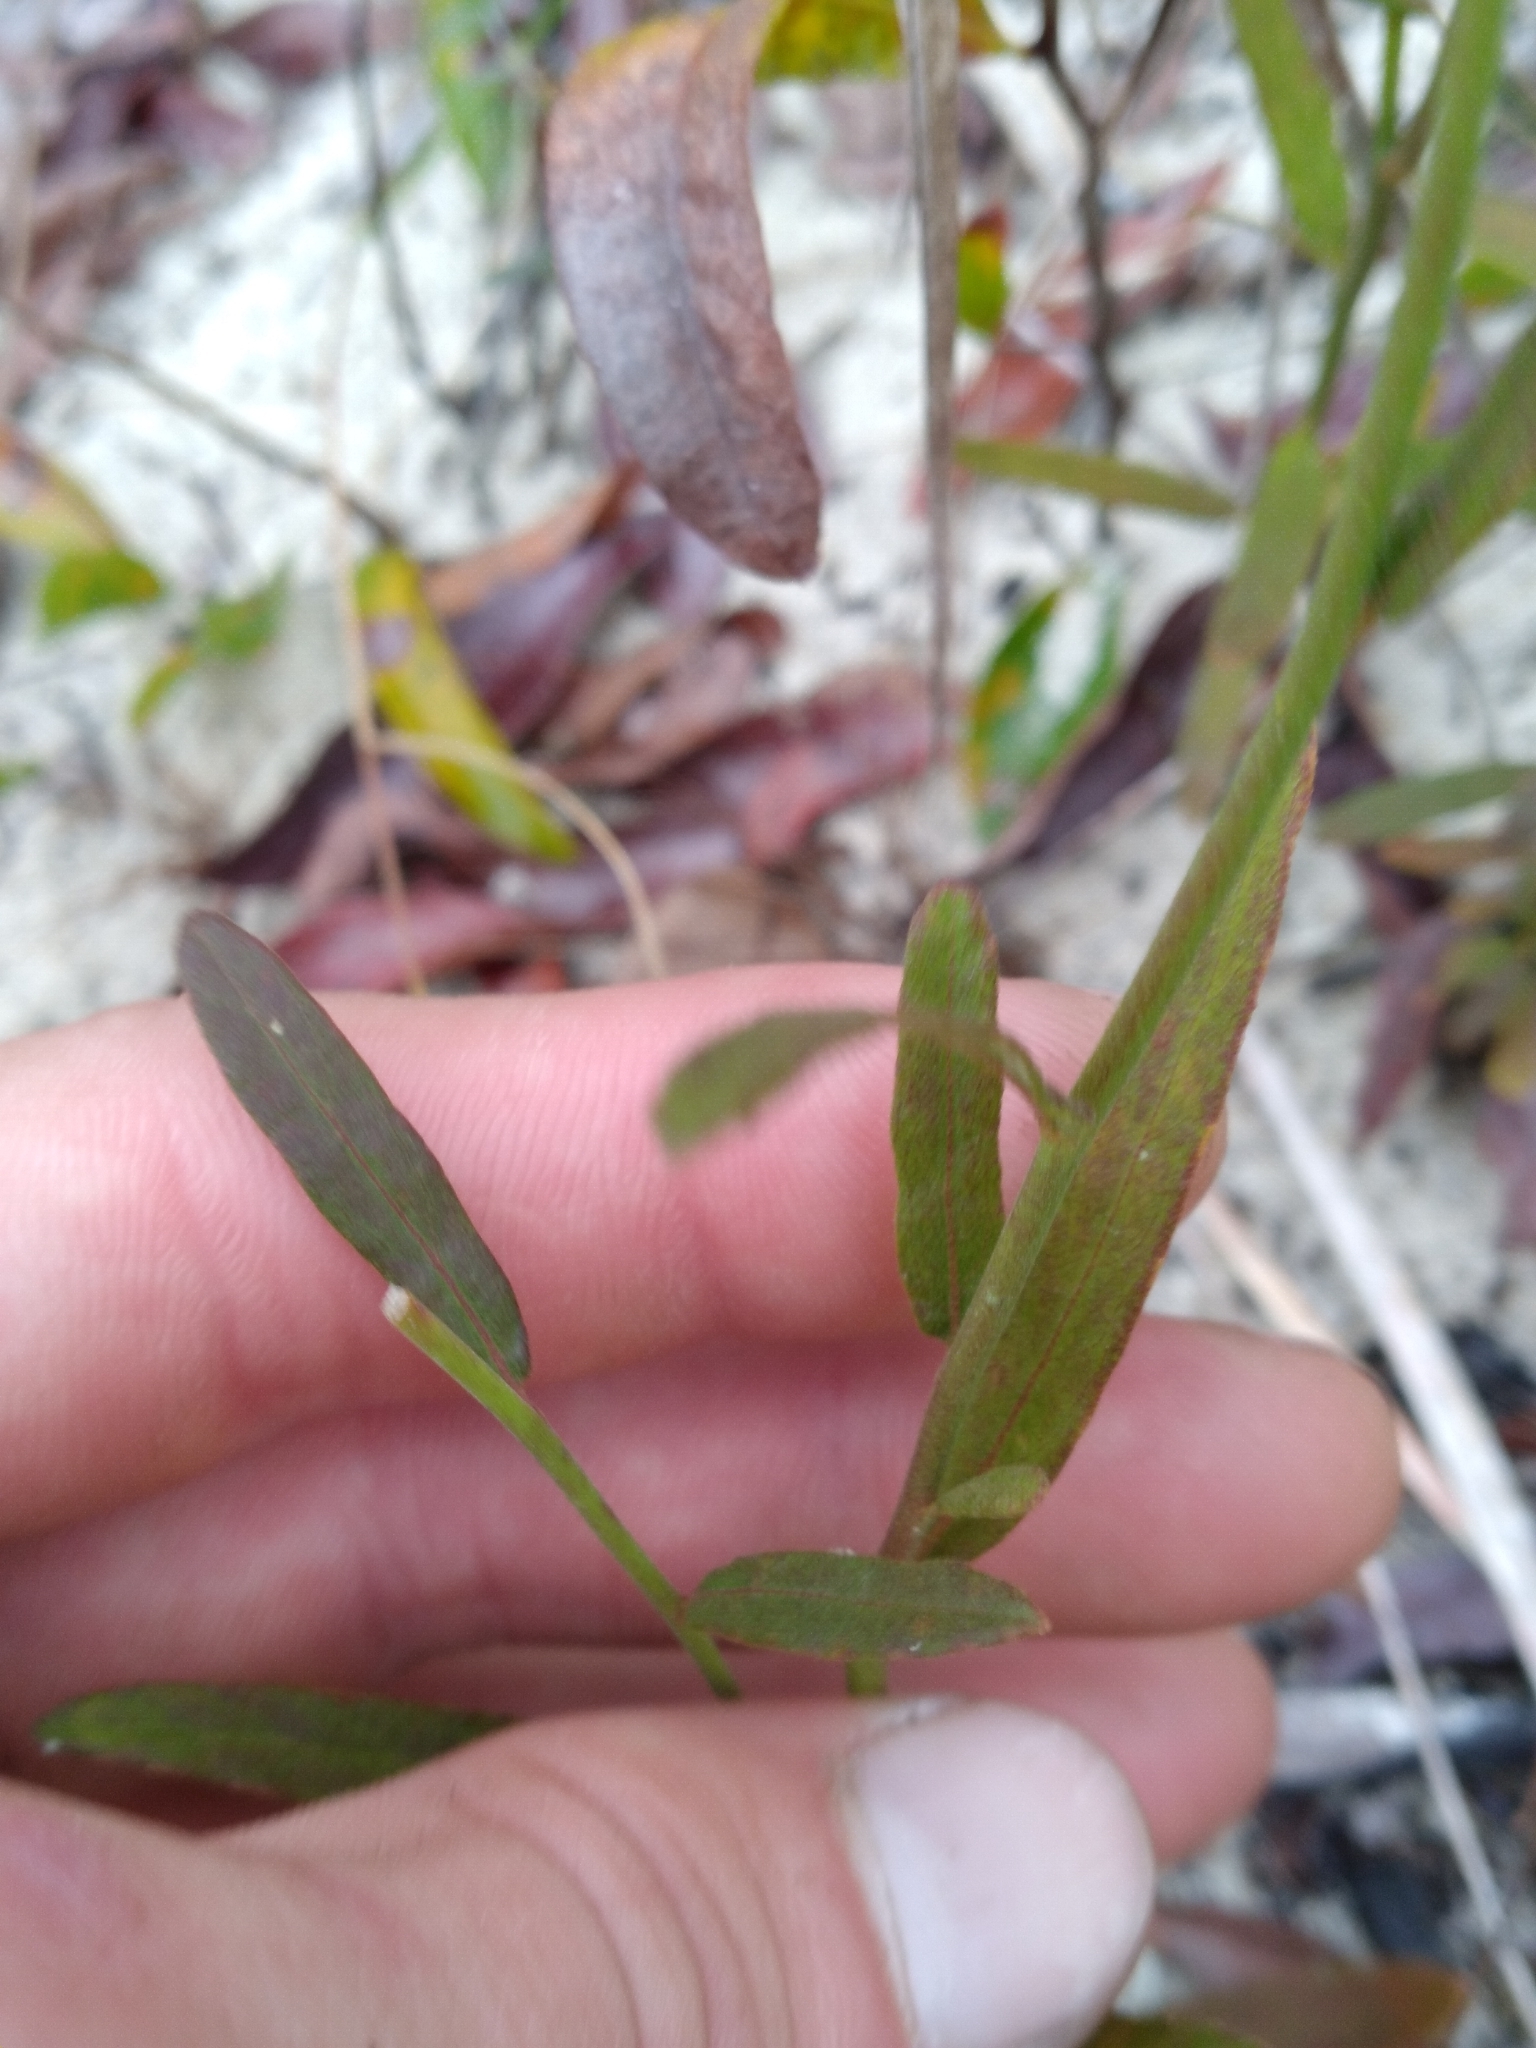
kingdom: Plantae
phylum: Tracheophyta
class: Magnoliopsida
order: Malpighiales
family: Turneraceae
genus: Piriqueta
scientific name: Piriqueta cistoides
